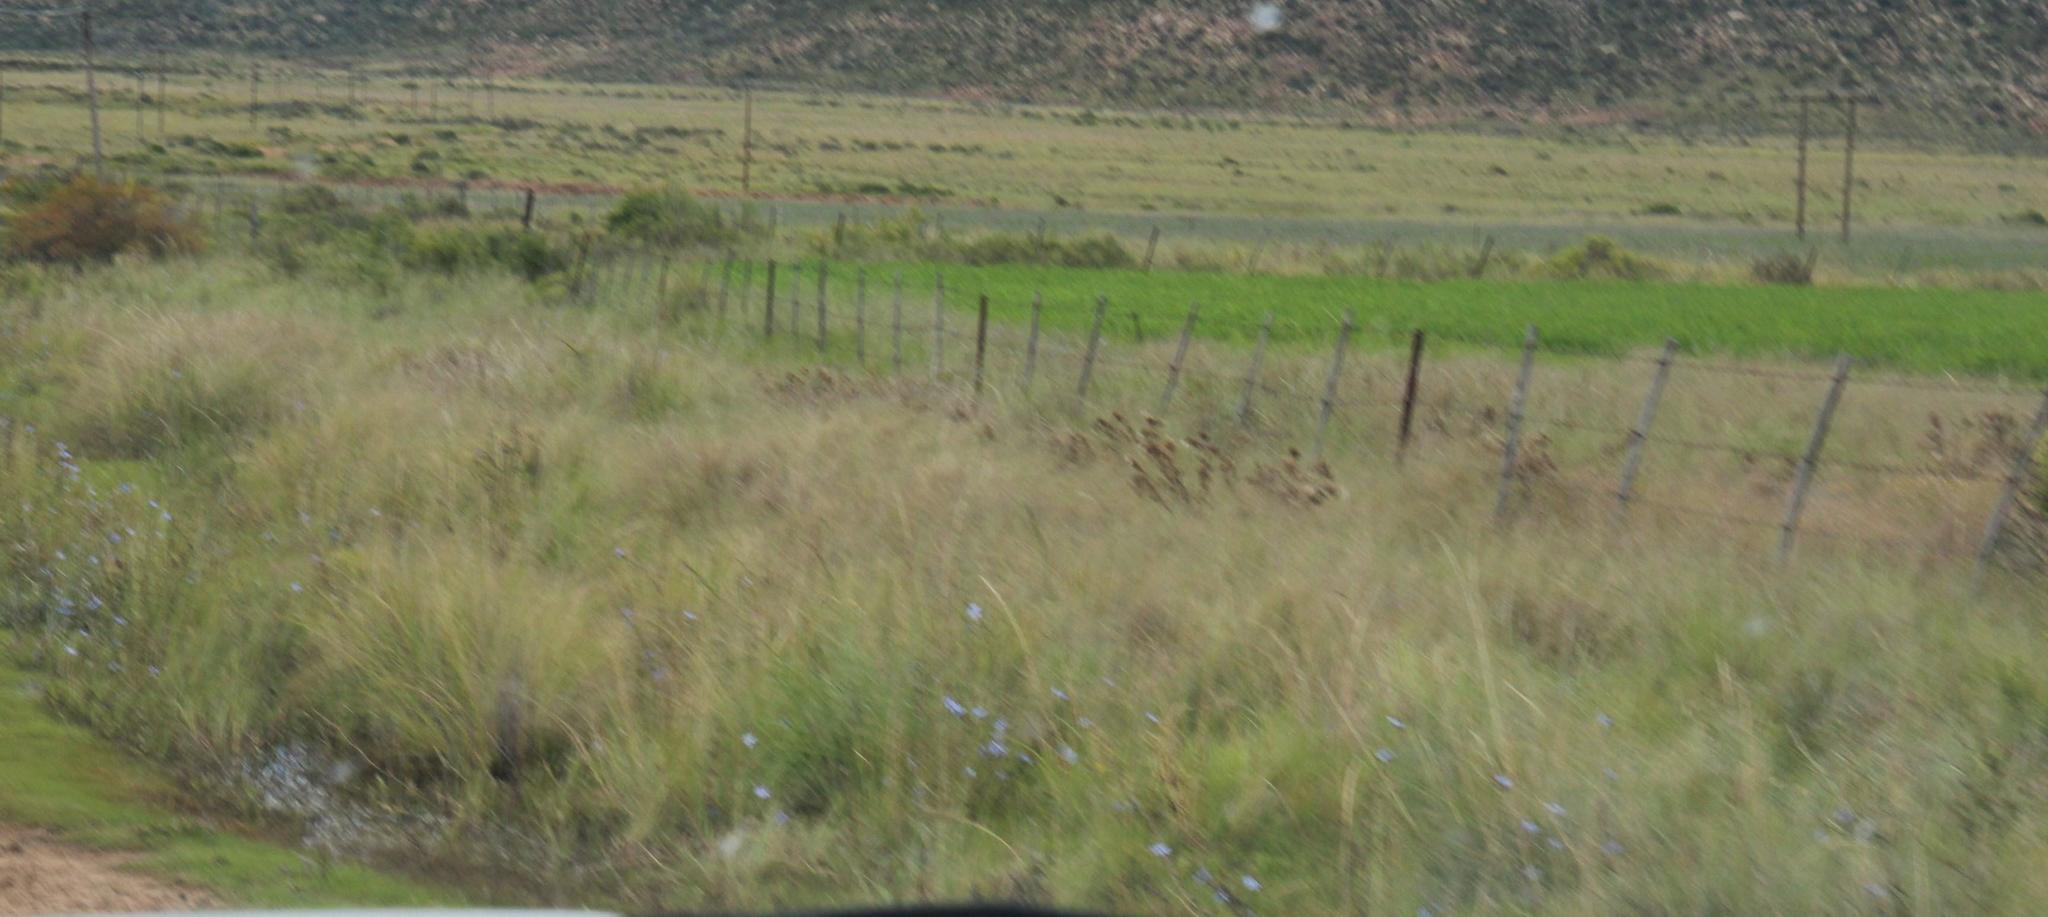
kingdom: Plantae
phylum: Tracheophyta
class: Magnoliopsida
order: Asterales
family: Asteraceae
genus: Cichorium
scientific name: Cichorium intybus
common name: Chicory
